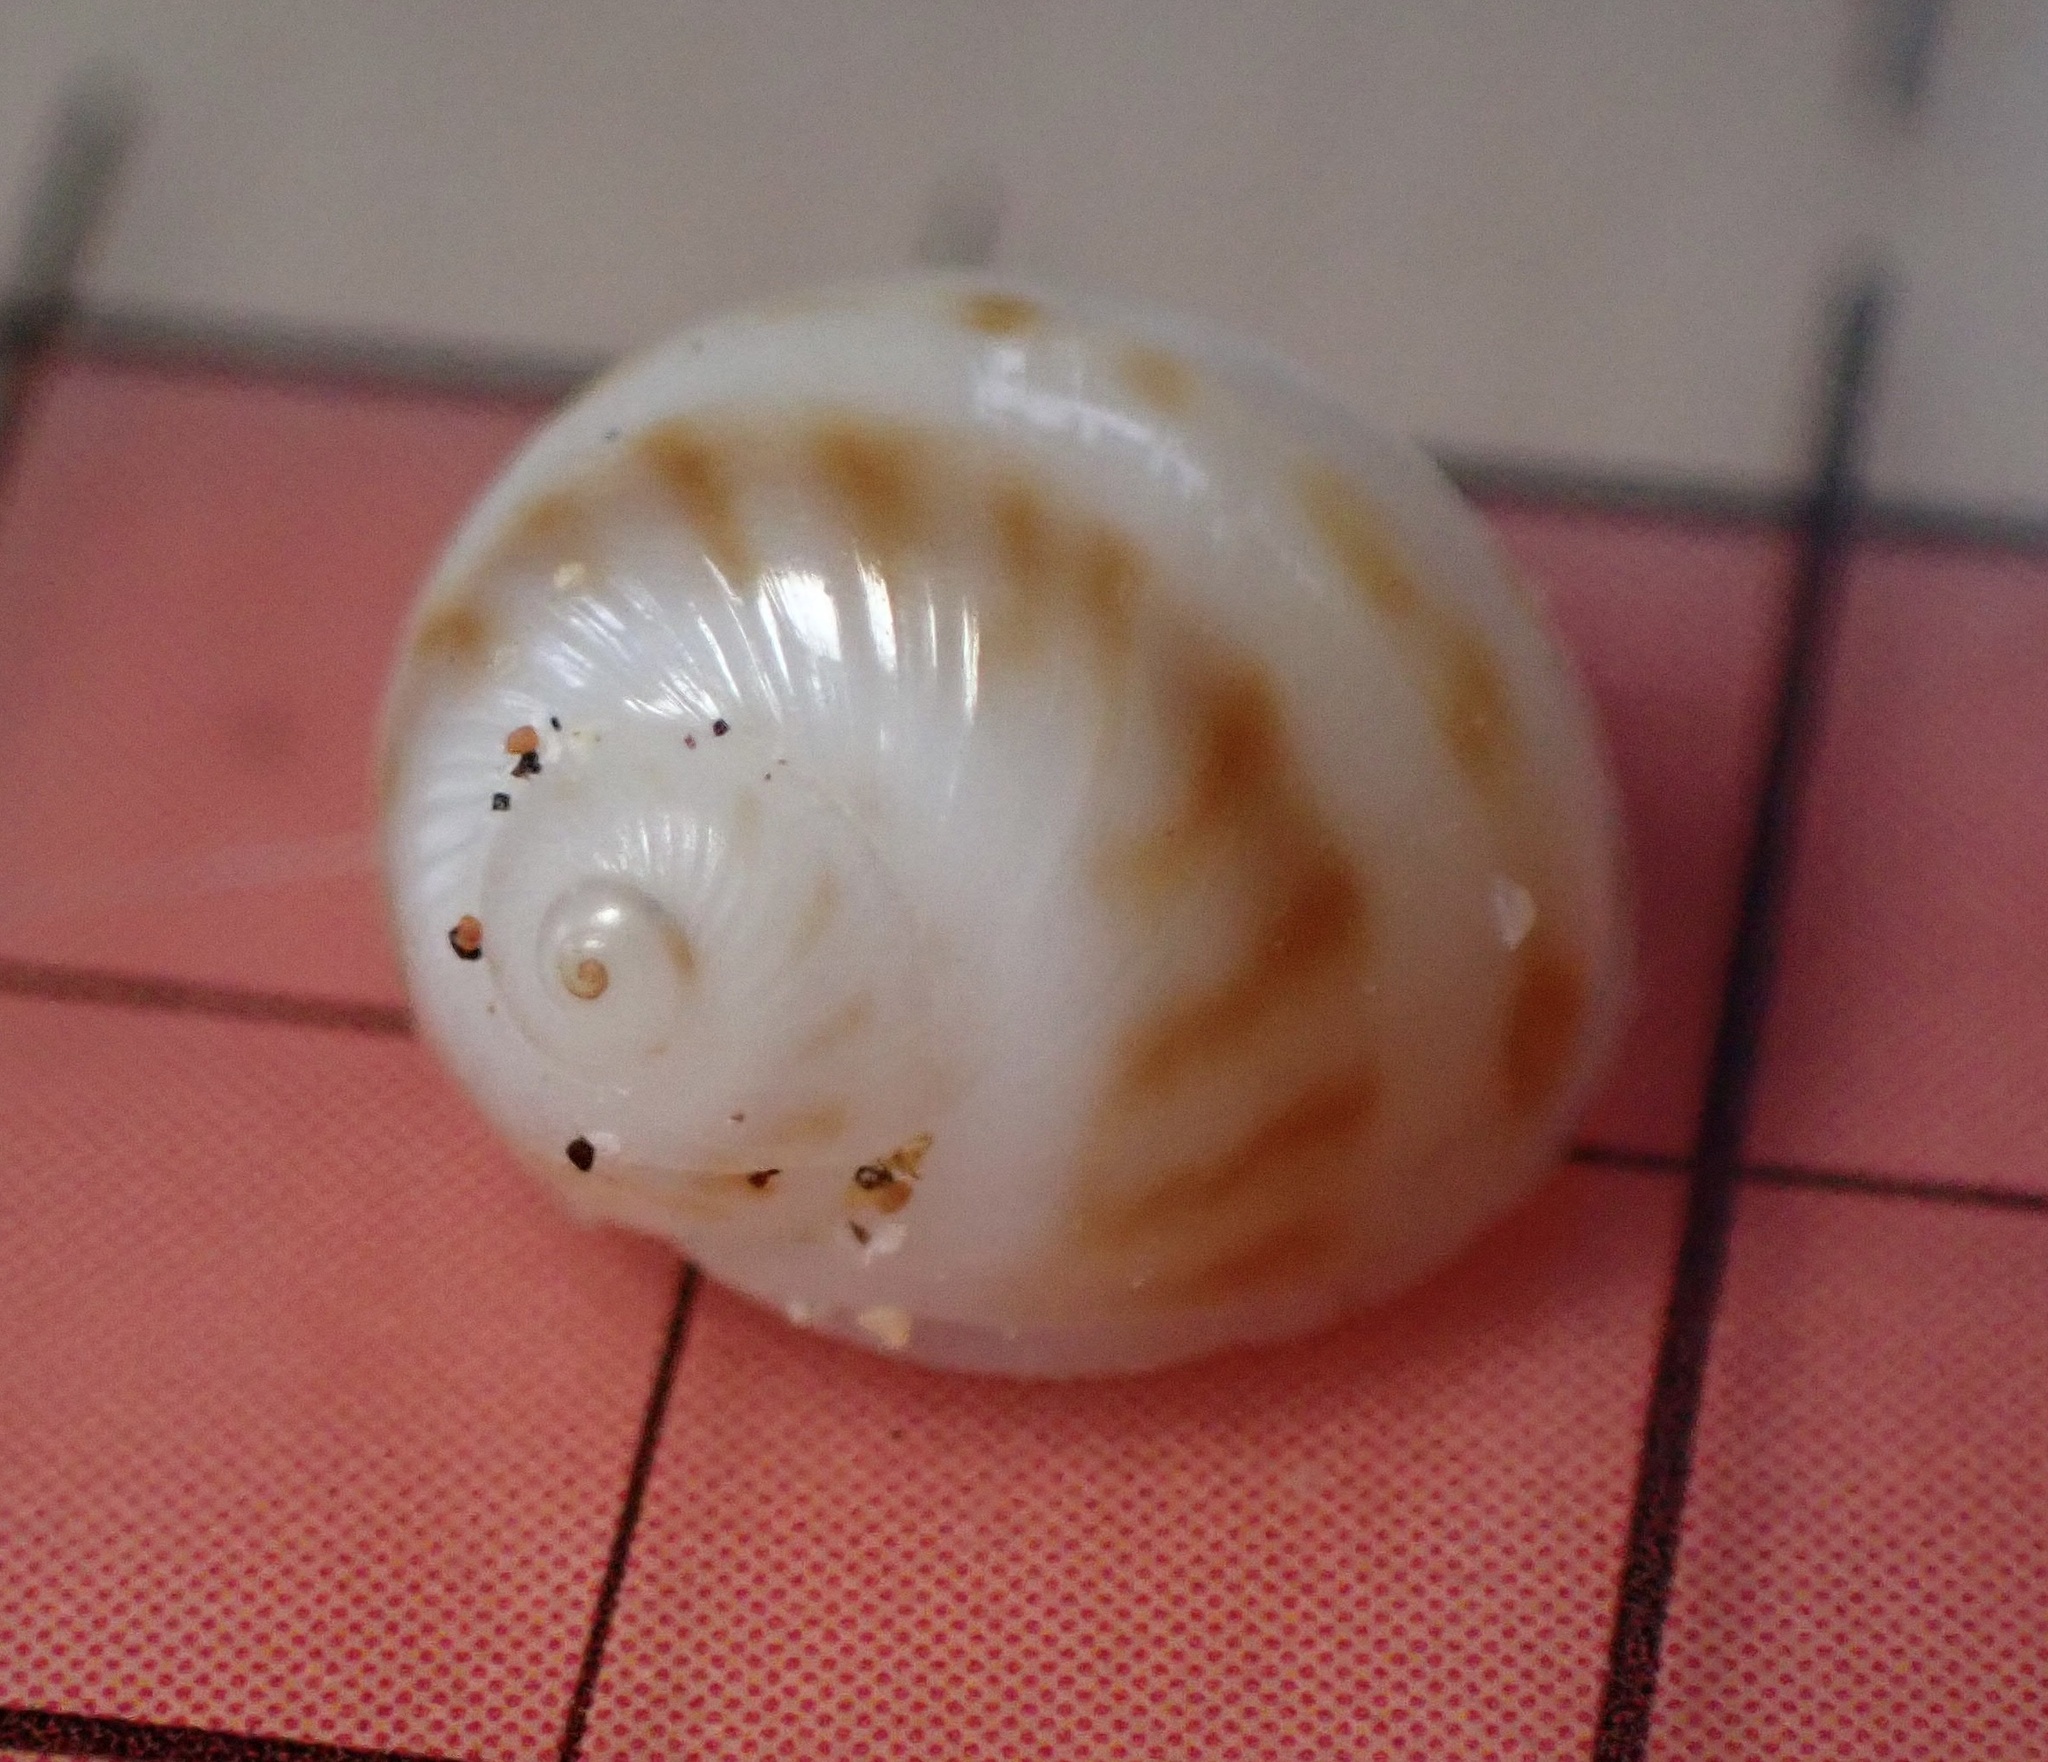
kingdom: Animalia
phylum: Mollusca
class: Gastropoda
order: Littorinimorpha
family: Naticidae
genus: Notocochlis
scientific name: Notocochlis gualteriana
